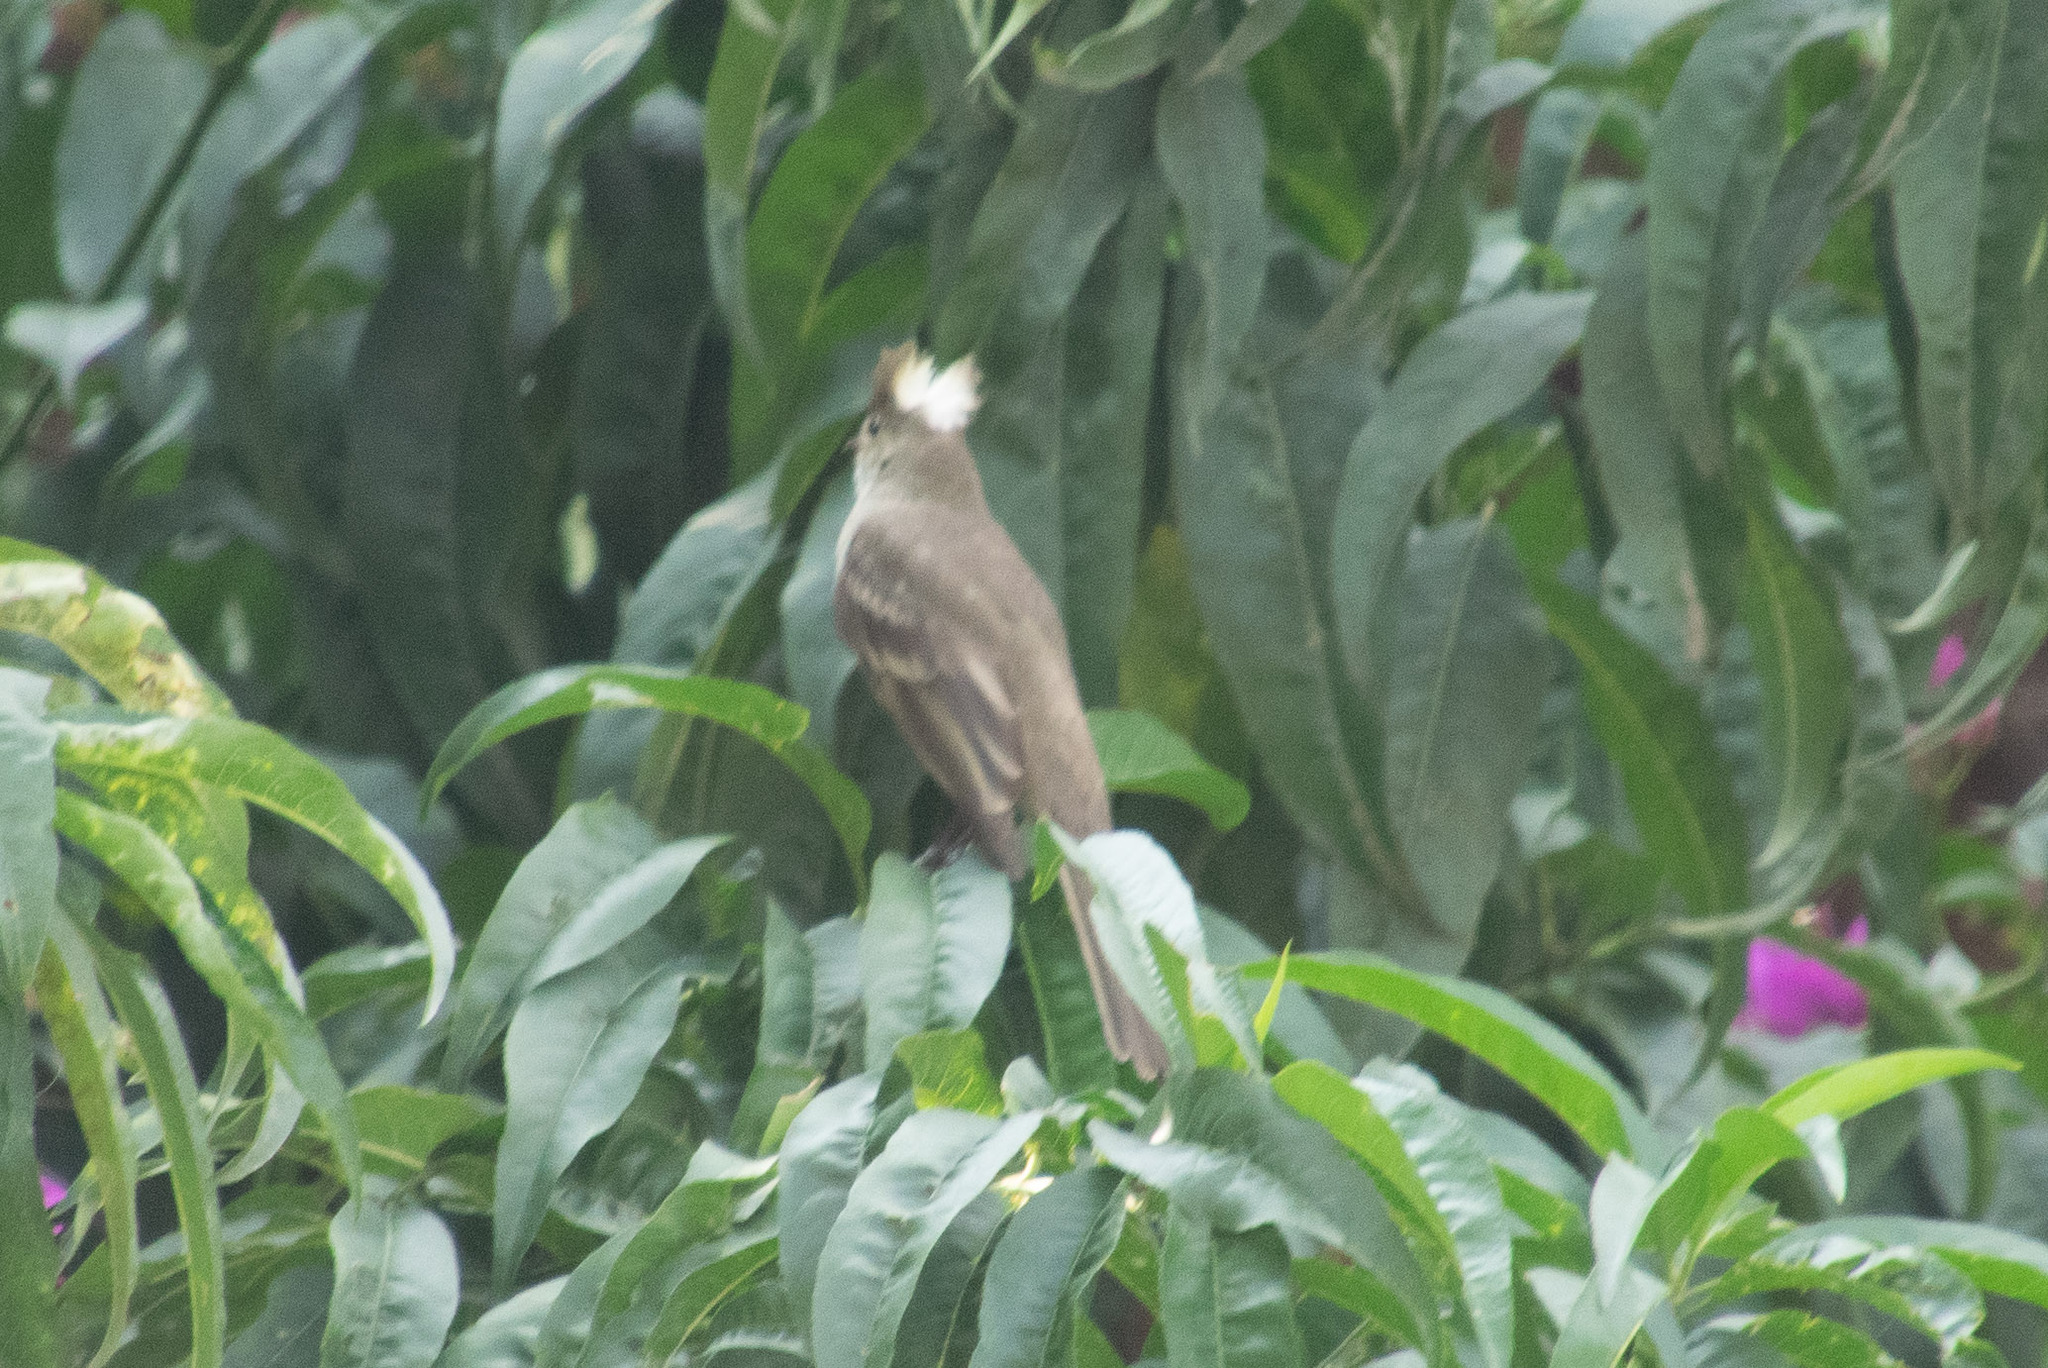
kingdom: Animalia
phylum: Chordata
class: Aves
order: Passeriformes
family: Tyrannidae
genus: Elaenia
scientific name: Elaenia gigas
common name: Mottle-backed elaenia
